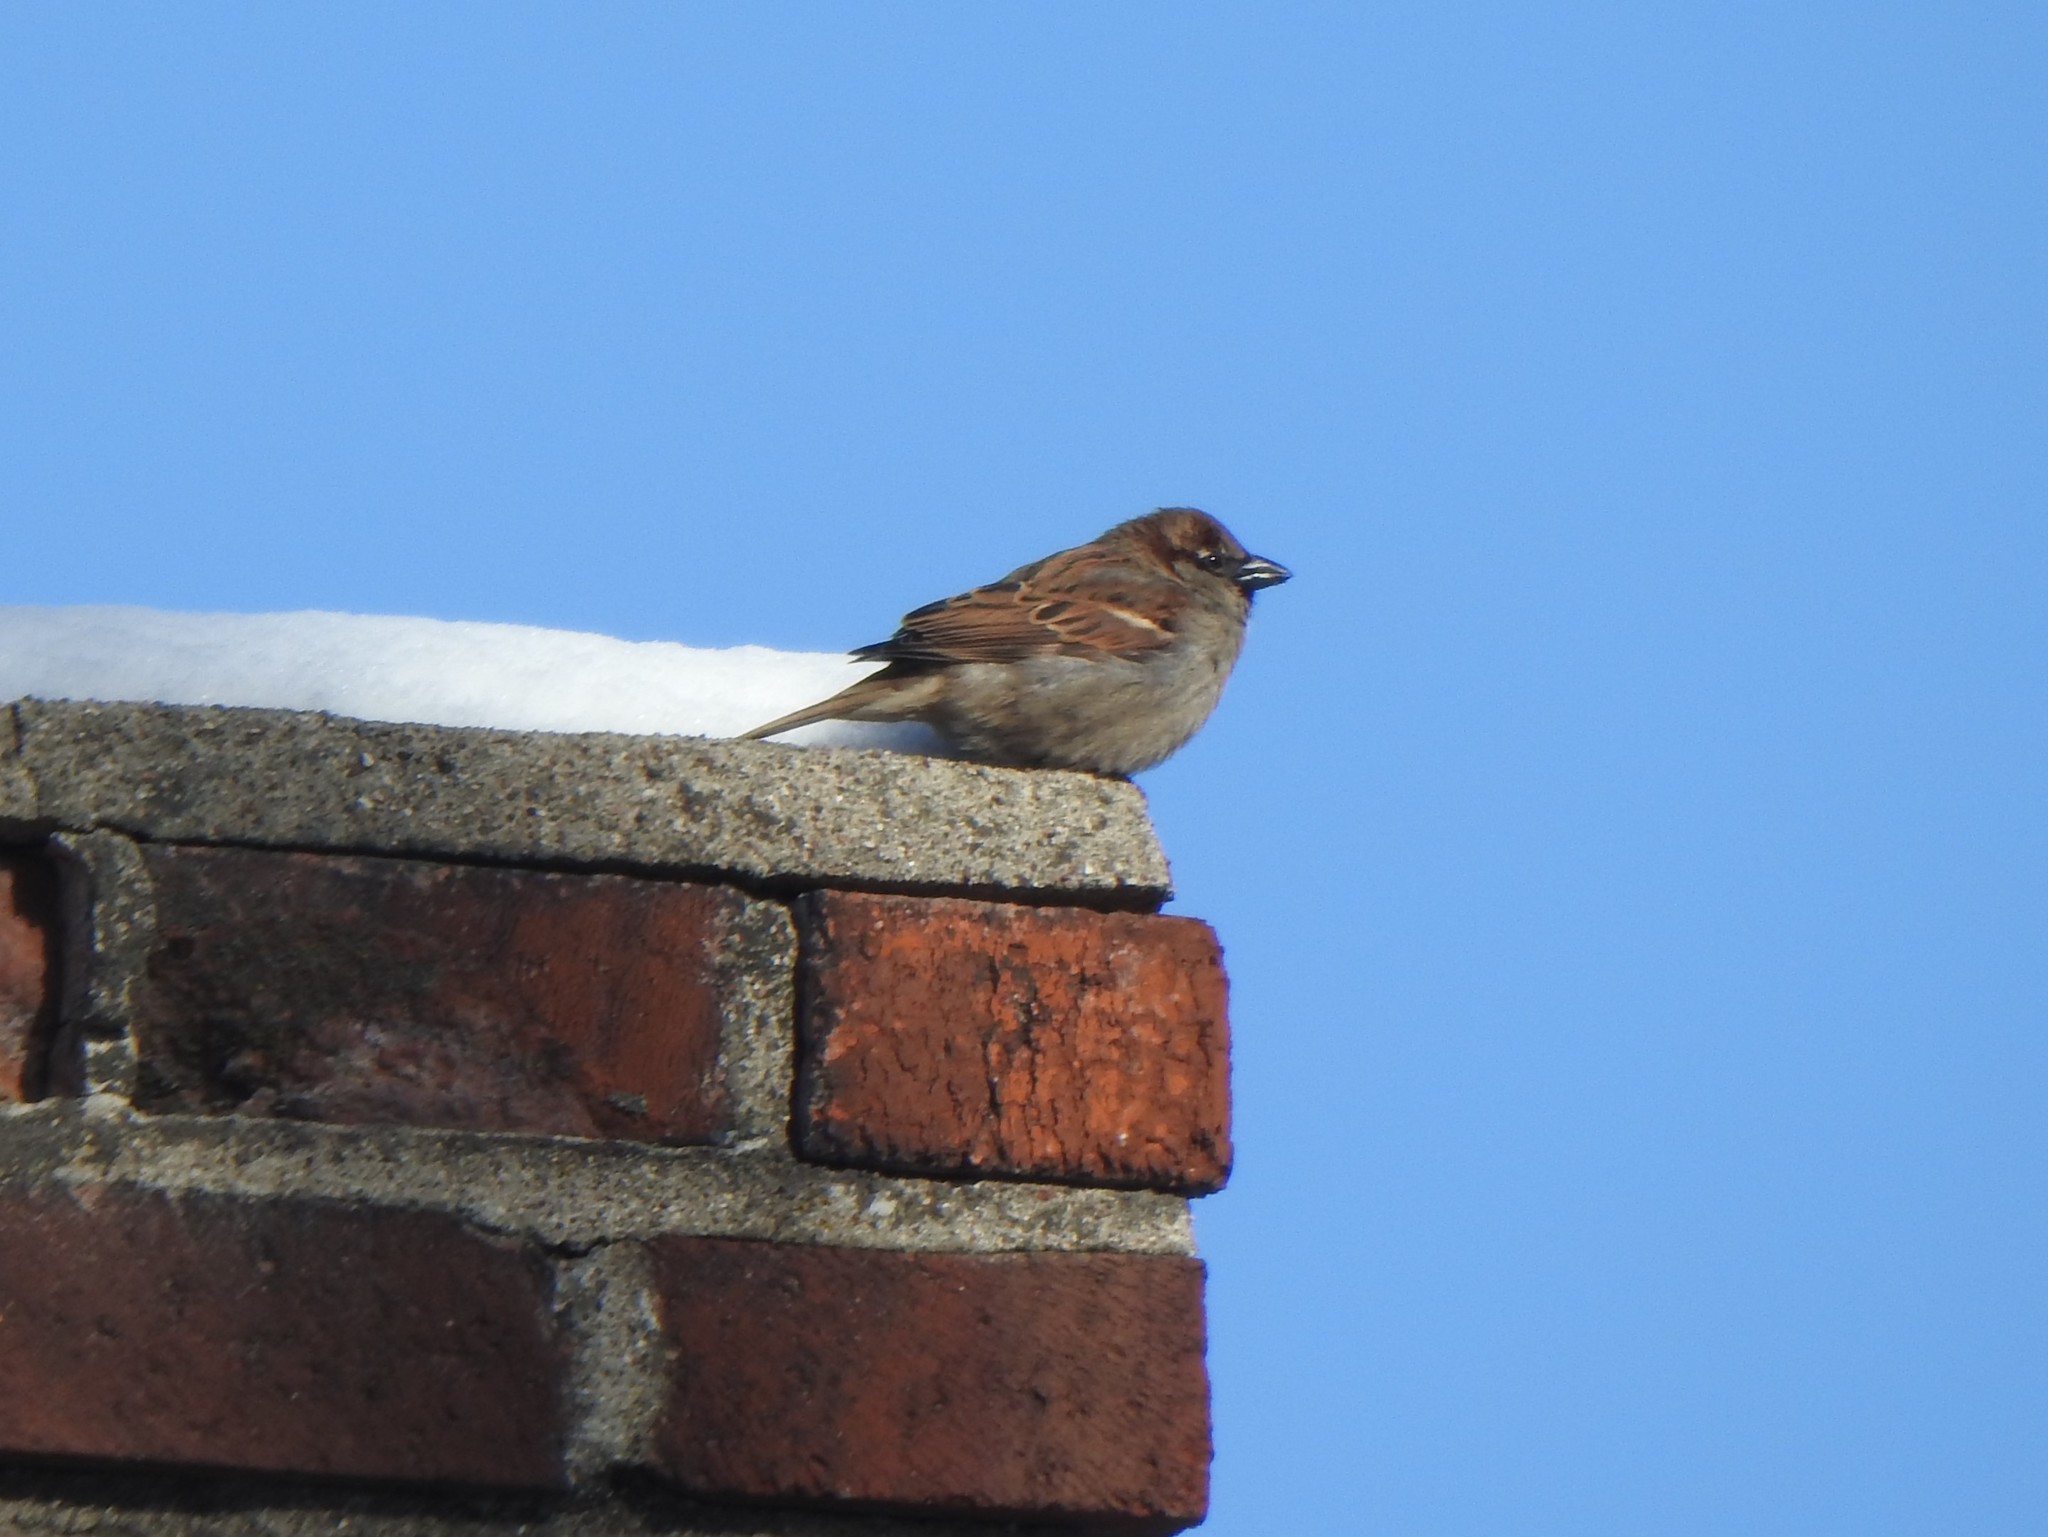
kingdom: Animalia
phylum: Chordata
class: Aves
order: Passeriformes
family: Passeridae
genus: Passer
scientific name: Passer domesticus
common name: House sparrow
